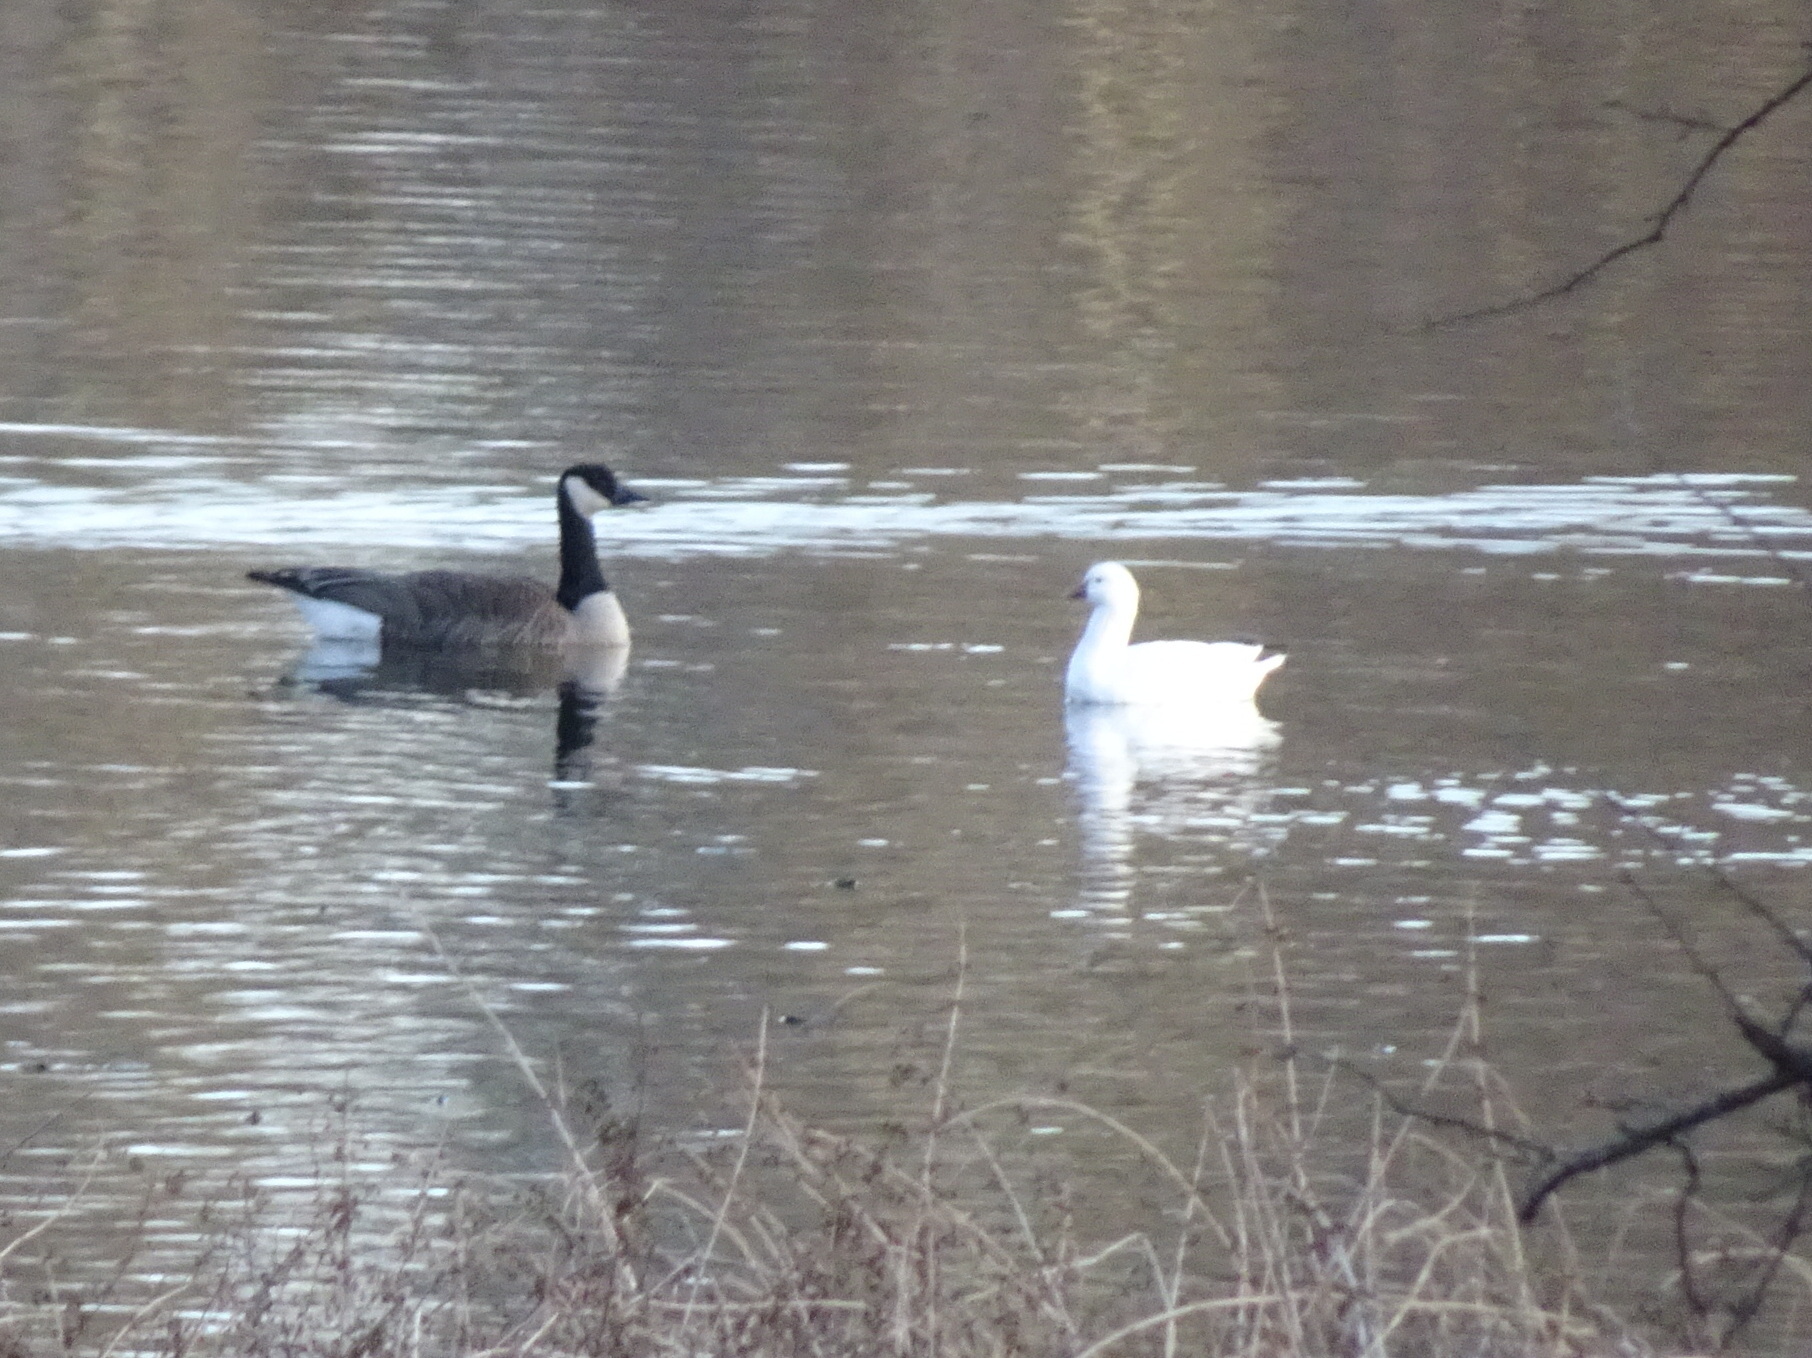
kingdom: Animalia
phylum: Chordata
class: Aves
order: Anseriformes
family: Anatidae
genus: Anser
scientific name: Anser rossii
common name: Ross's goose
